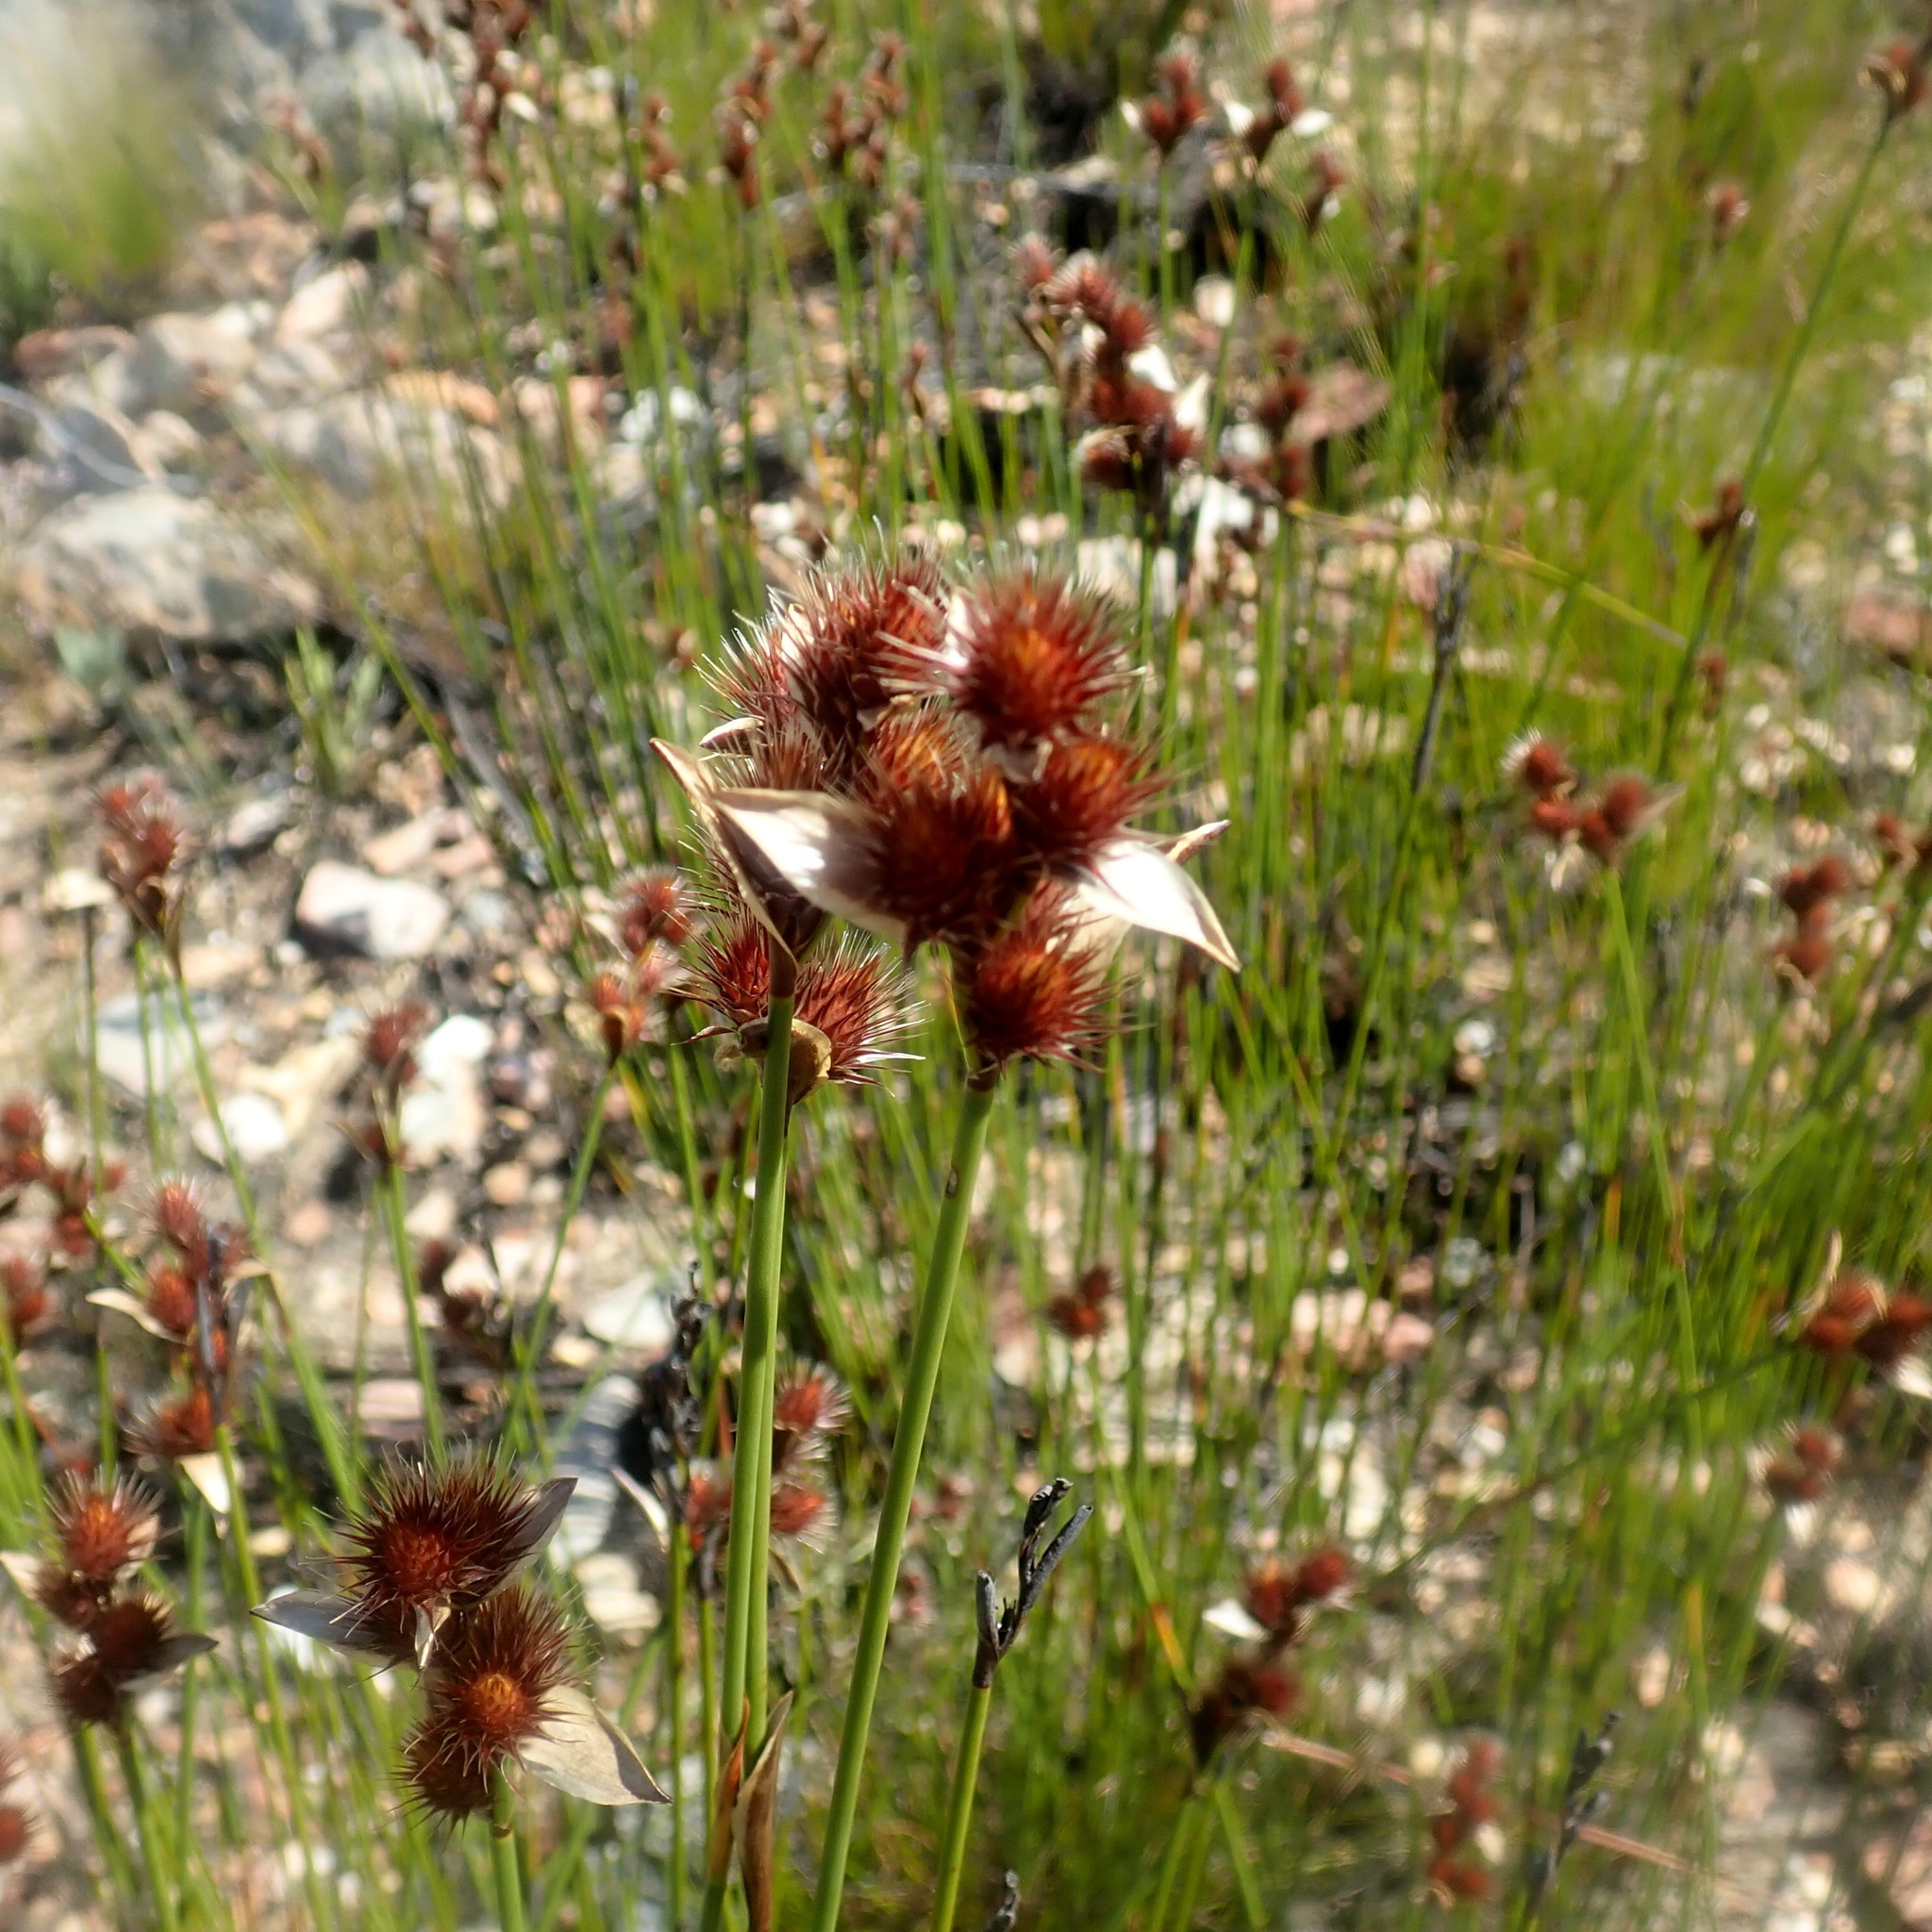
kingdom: Plantae
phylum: Tracheophyta
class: Liliopsida
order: Poales
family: Restionaceae
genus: Hypodiscus
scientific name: Hypodiscus aristatus
